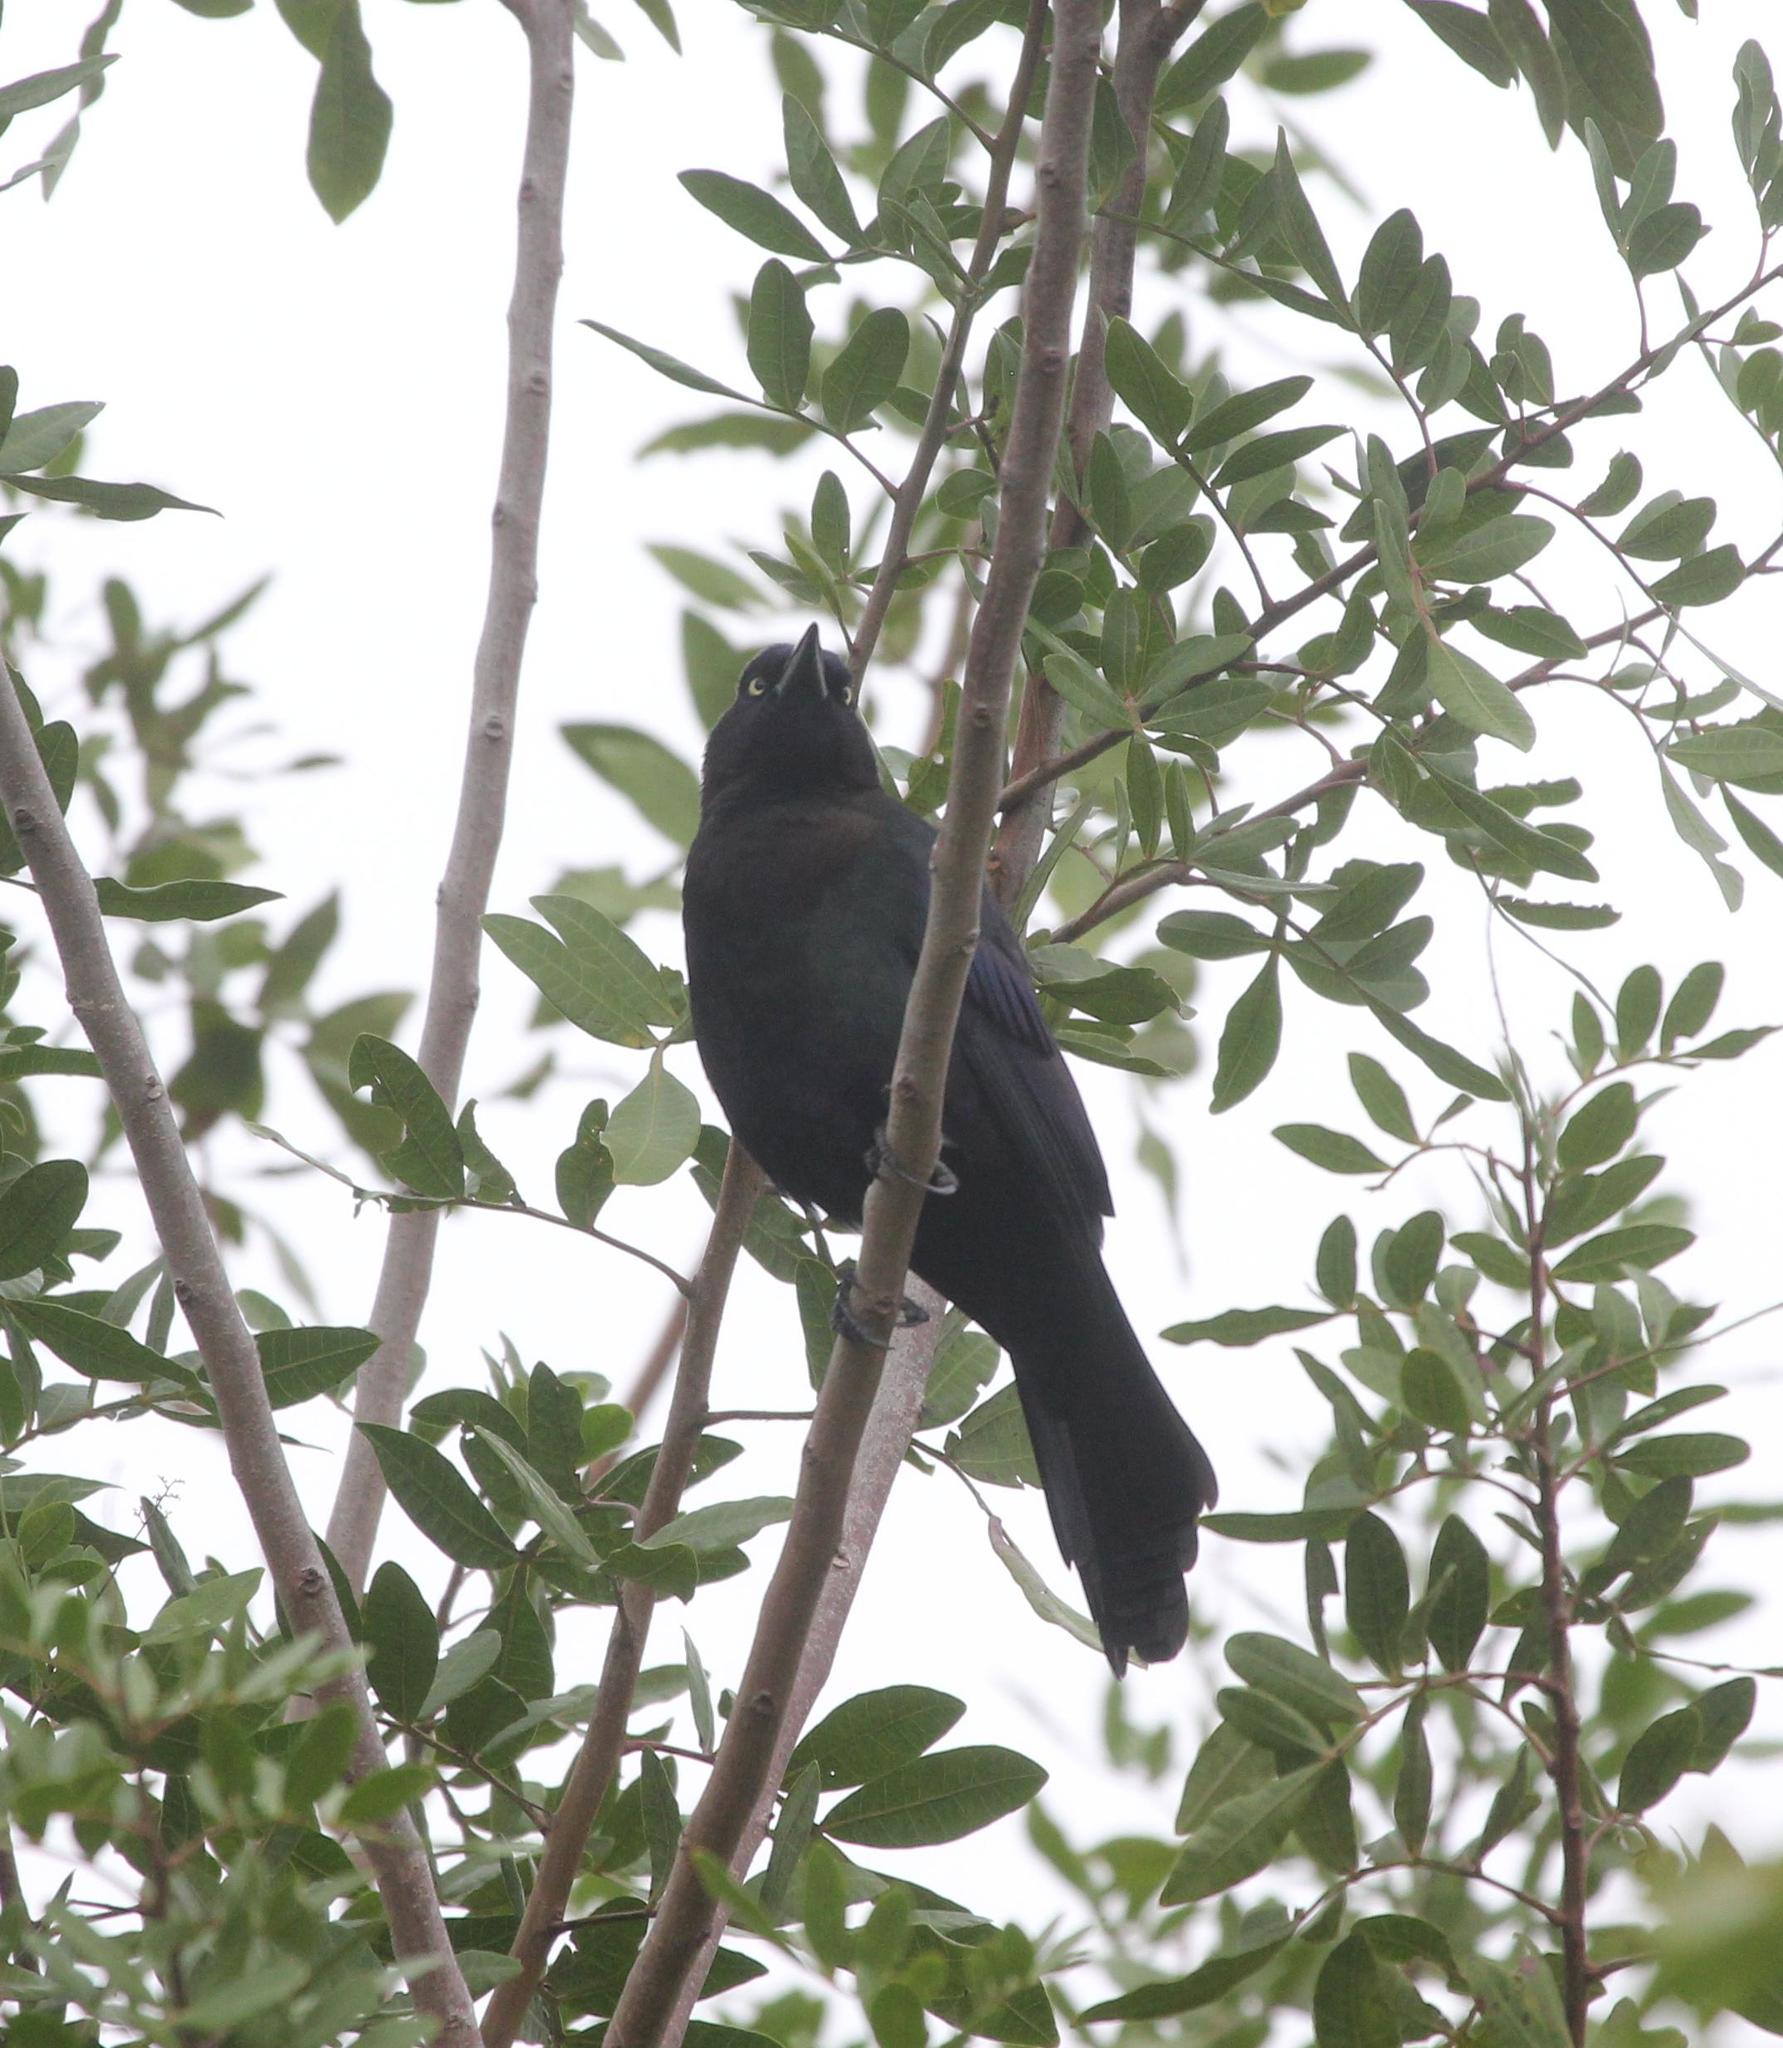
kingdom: Animalia
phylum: Chordata
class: Aves
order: Passeriformes
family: Icteridae
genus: Quiscalus
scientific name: Quiscalus quiscula
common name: Common grackle
